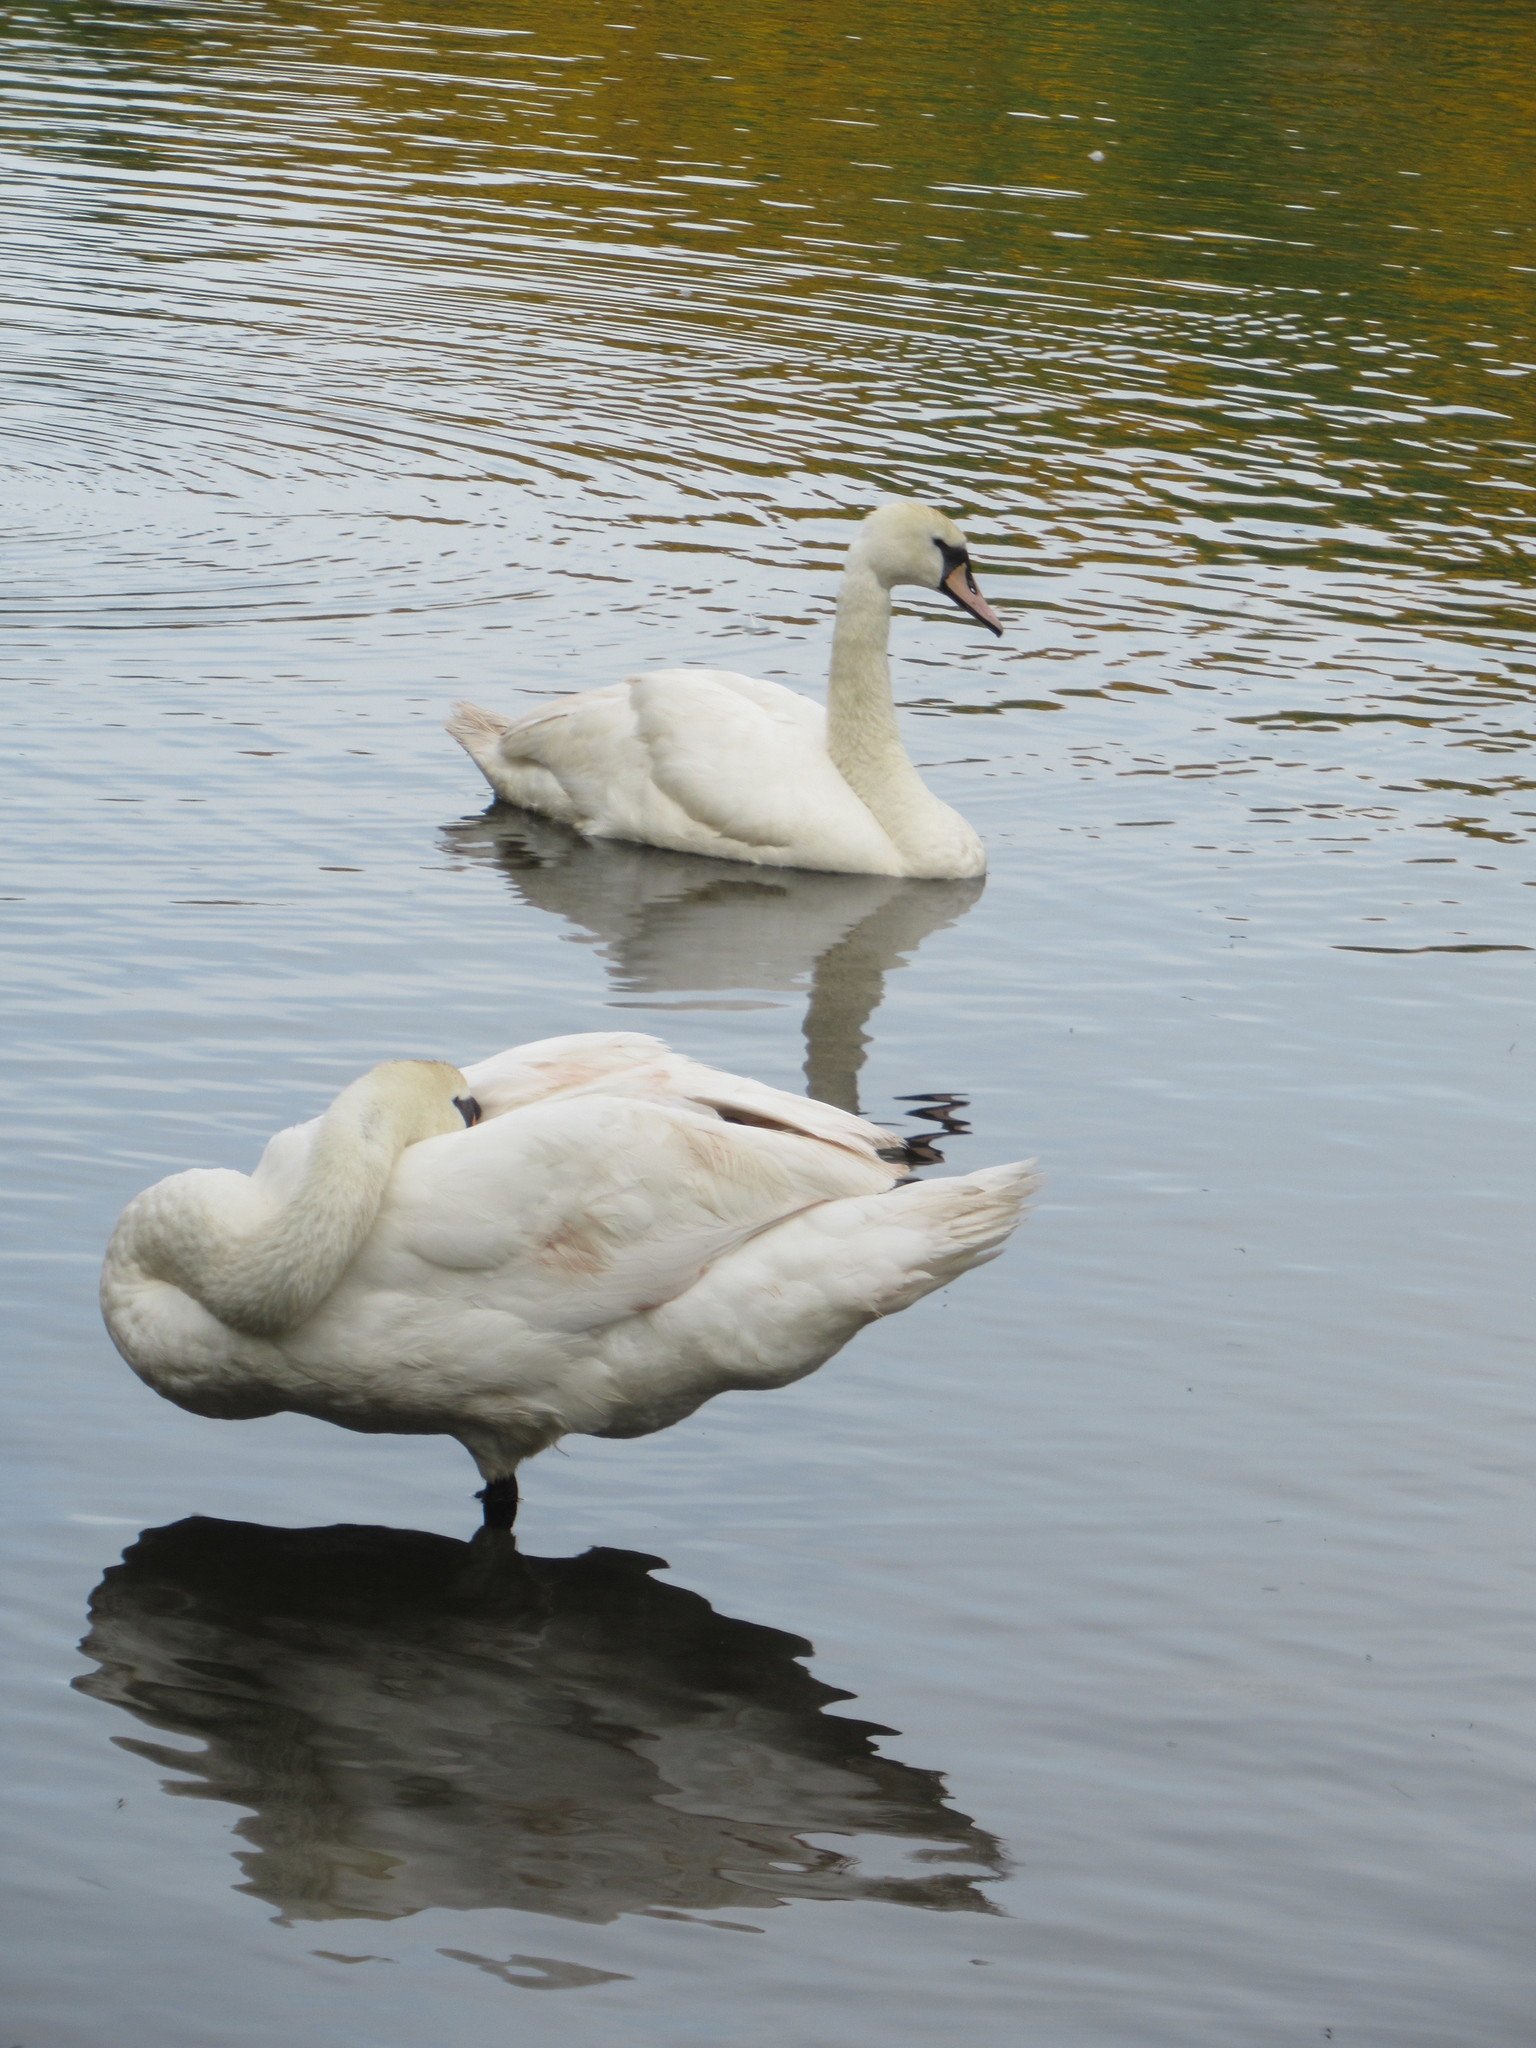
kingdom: Animalia
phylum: Chordata
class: Aves
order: Anseriformes
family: Anatidae
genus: Cygnus
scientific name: Cygnus olor
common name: Mute swan
